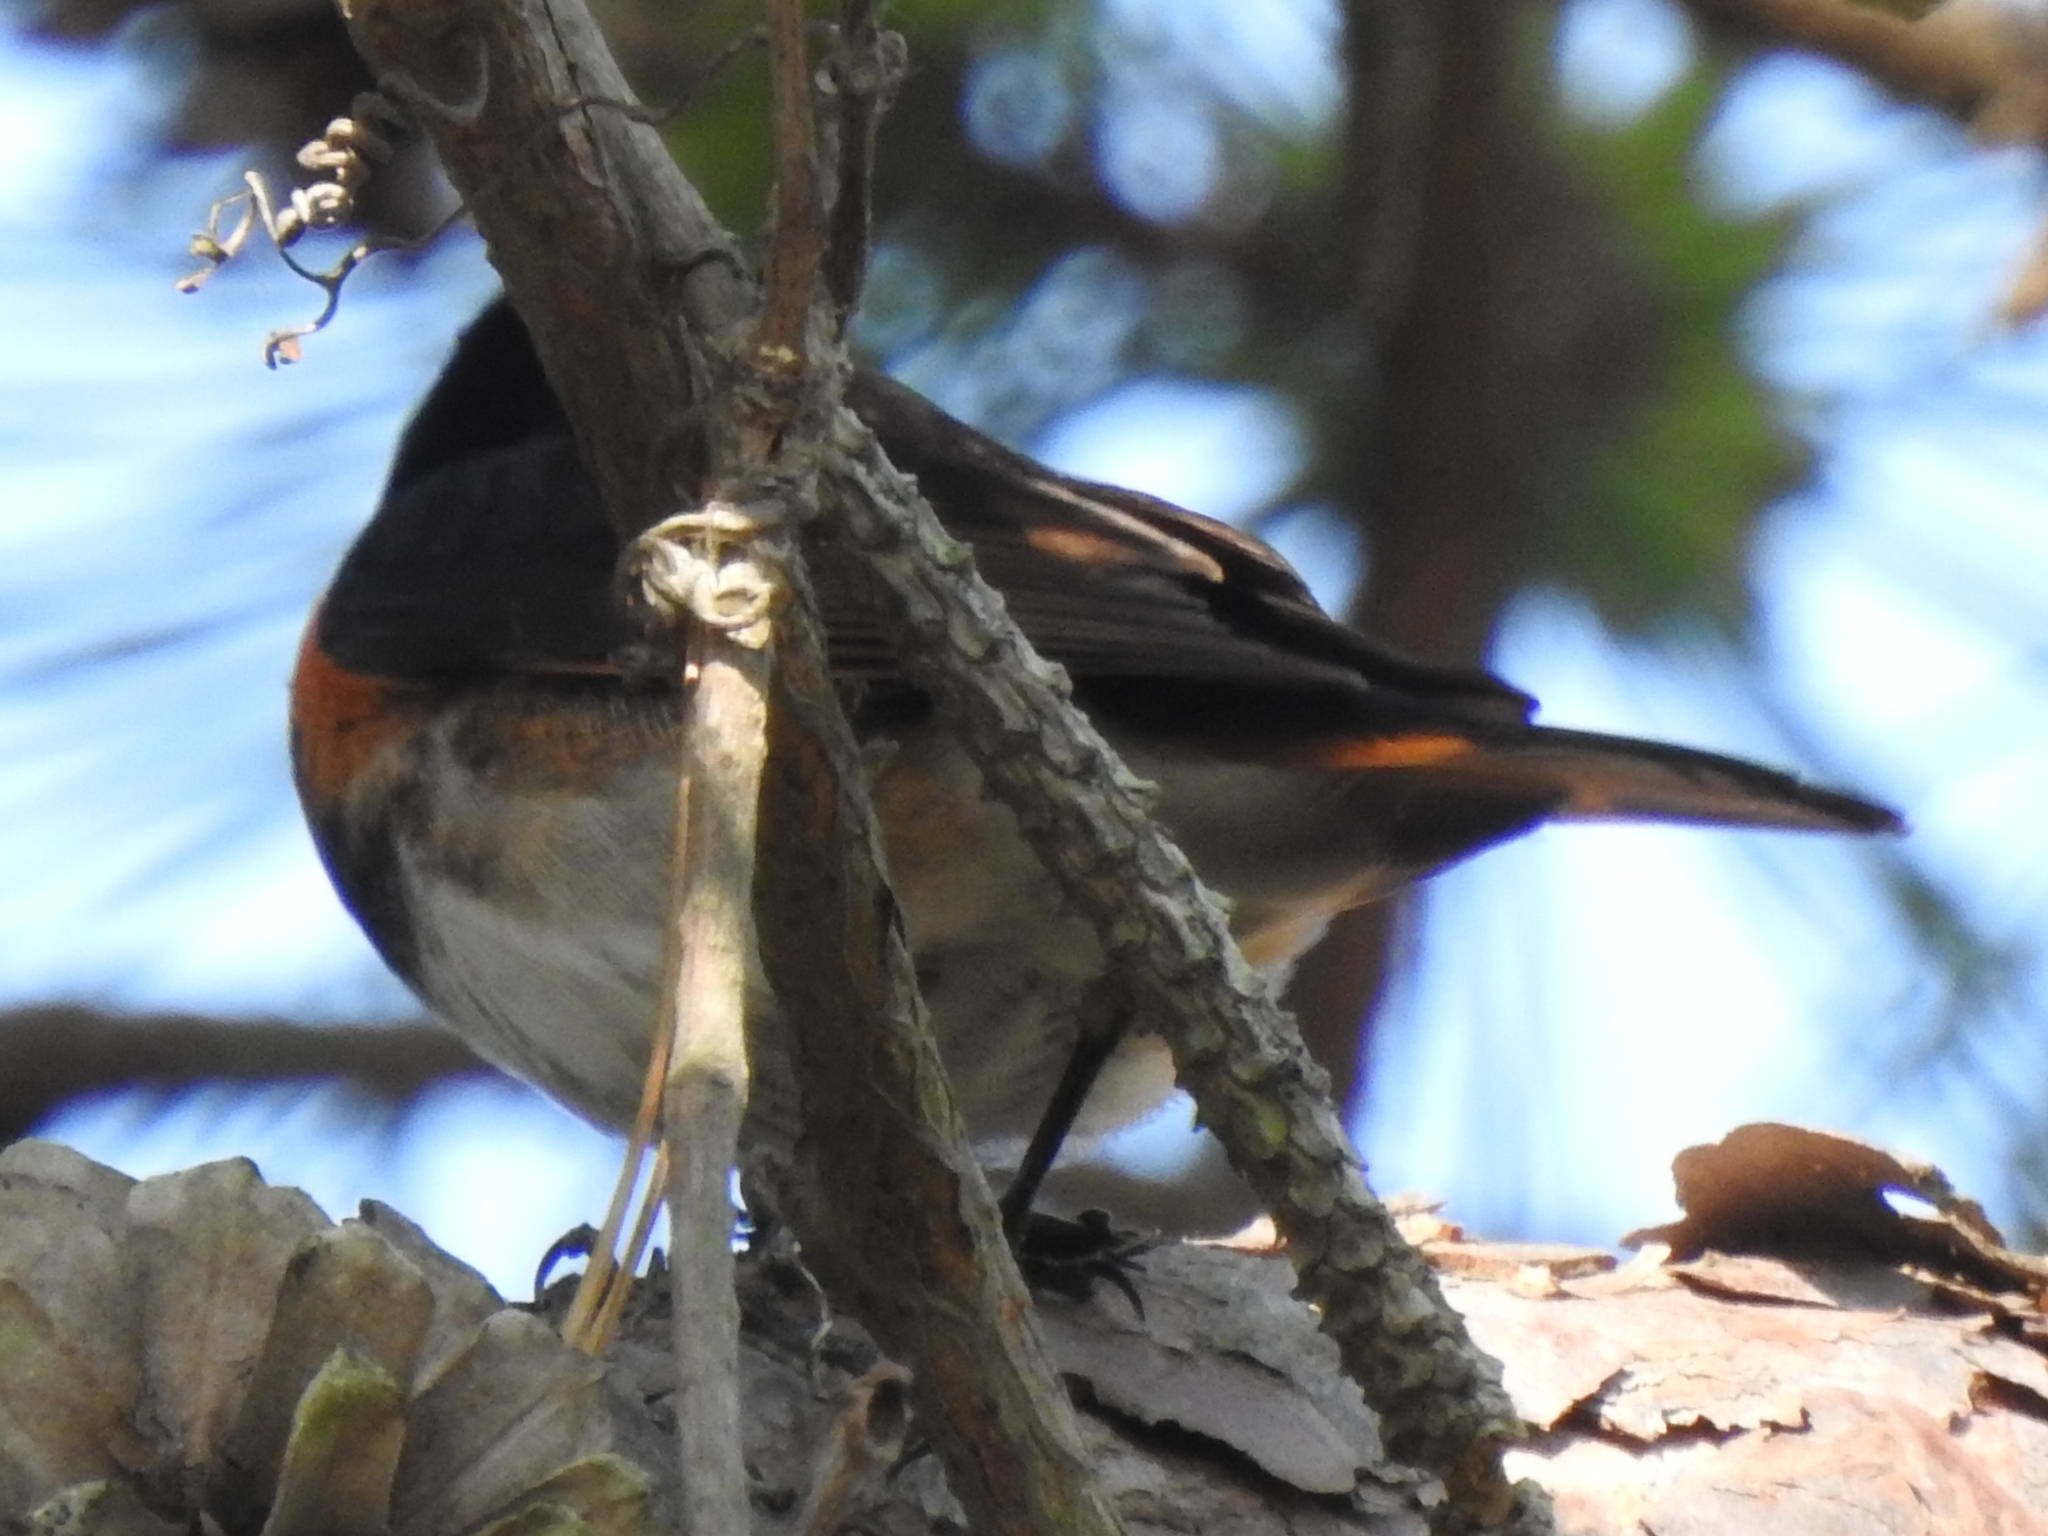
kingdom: Animalia
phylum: Chordata
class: Aves
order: Passeriformes
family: Parulidae
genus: Setophaga
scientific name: Setophaga ruticilla
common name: American redstart
